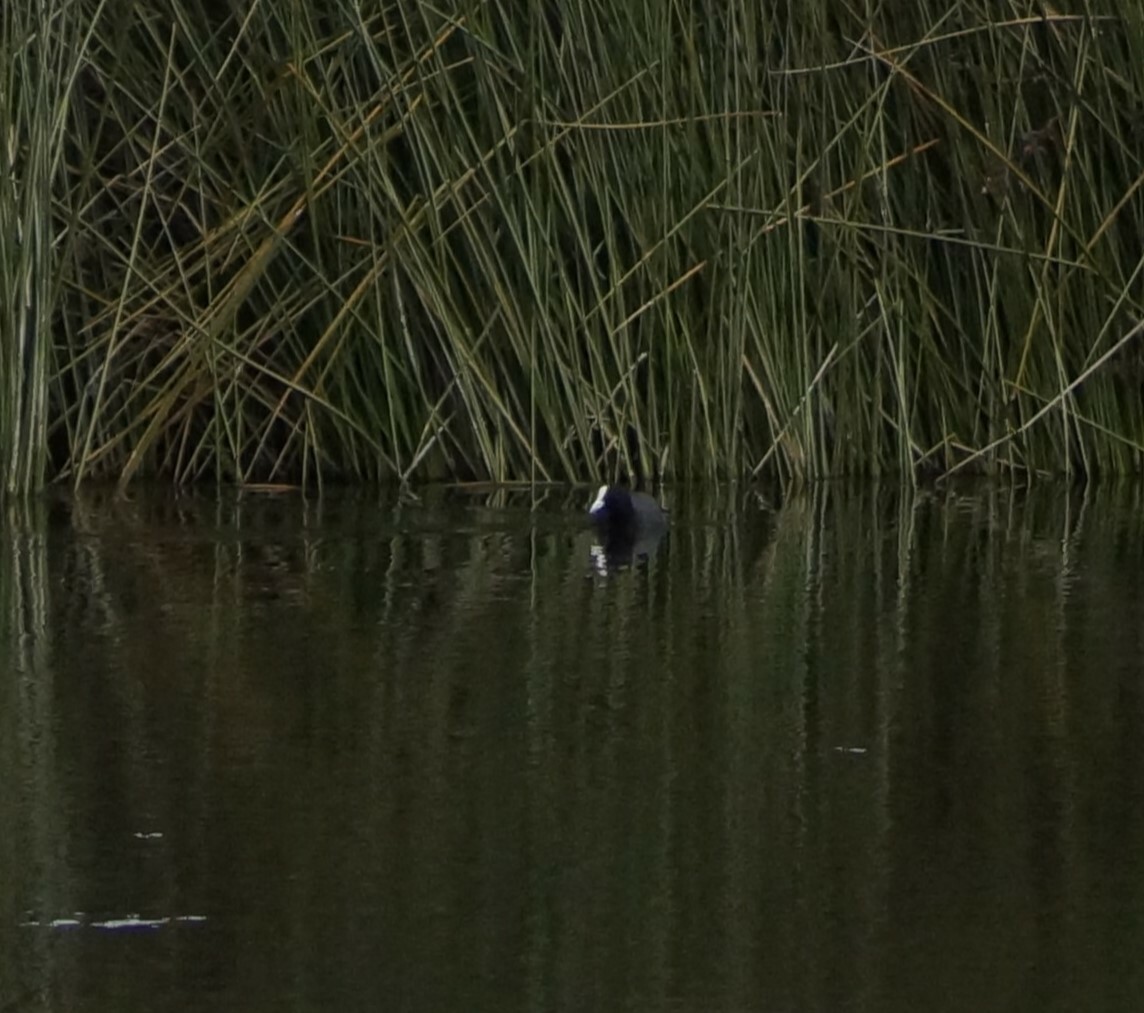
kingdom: Animalia
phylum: Chordata
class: Aves
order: Gruiformes
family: Rallidae
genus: Fulica
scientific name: Fulica atra
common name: Eurasian coot
